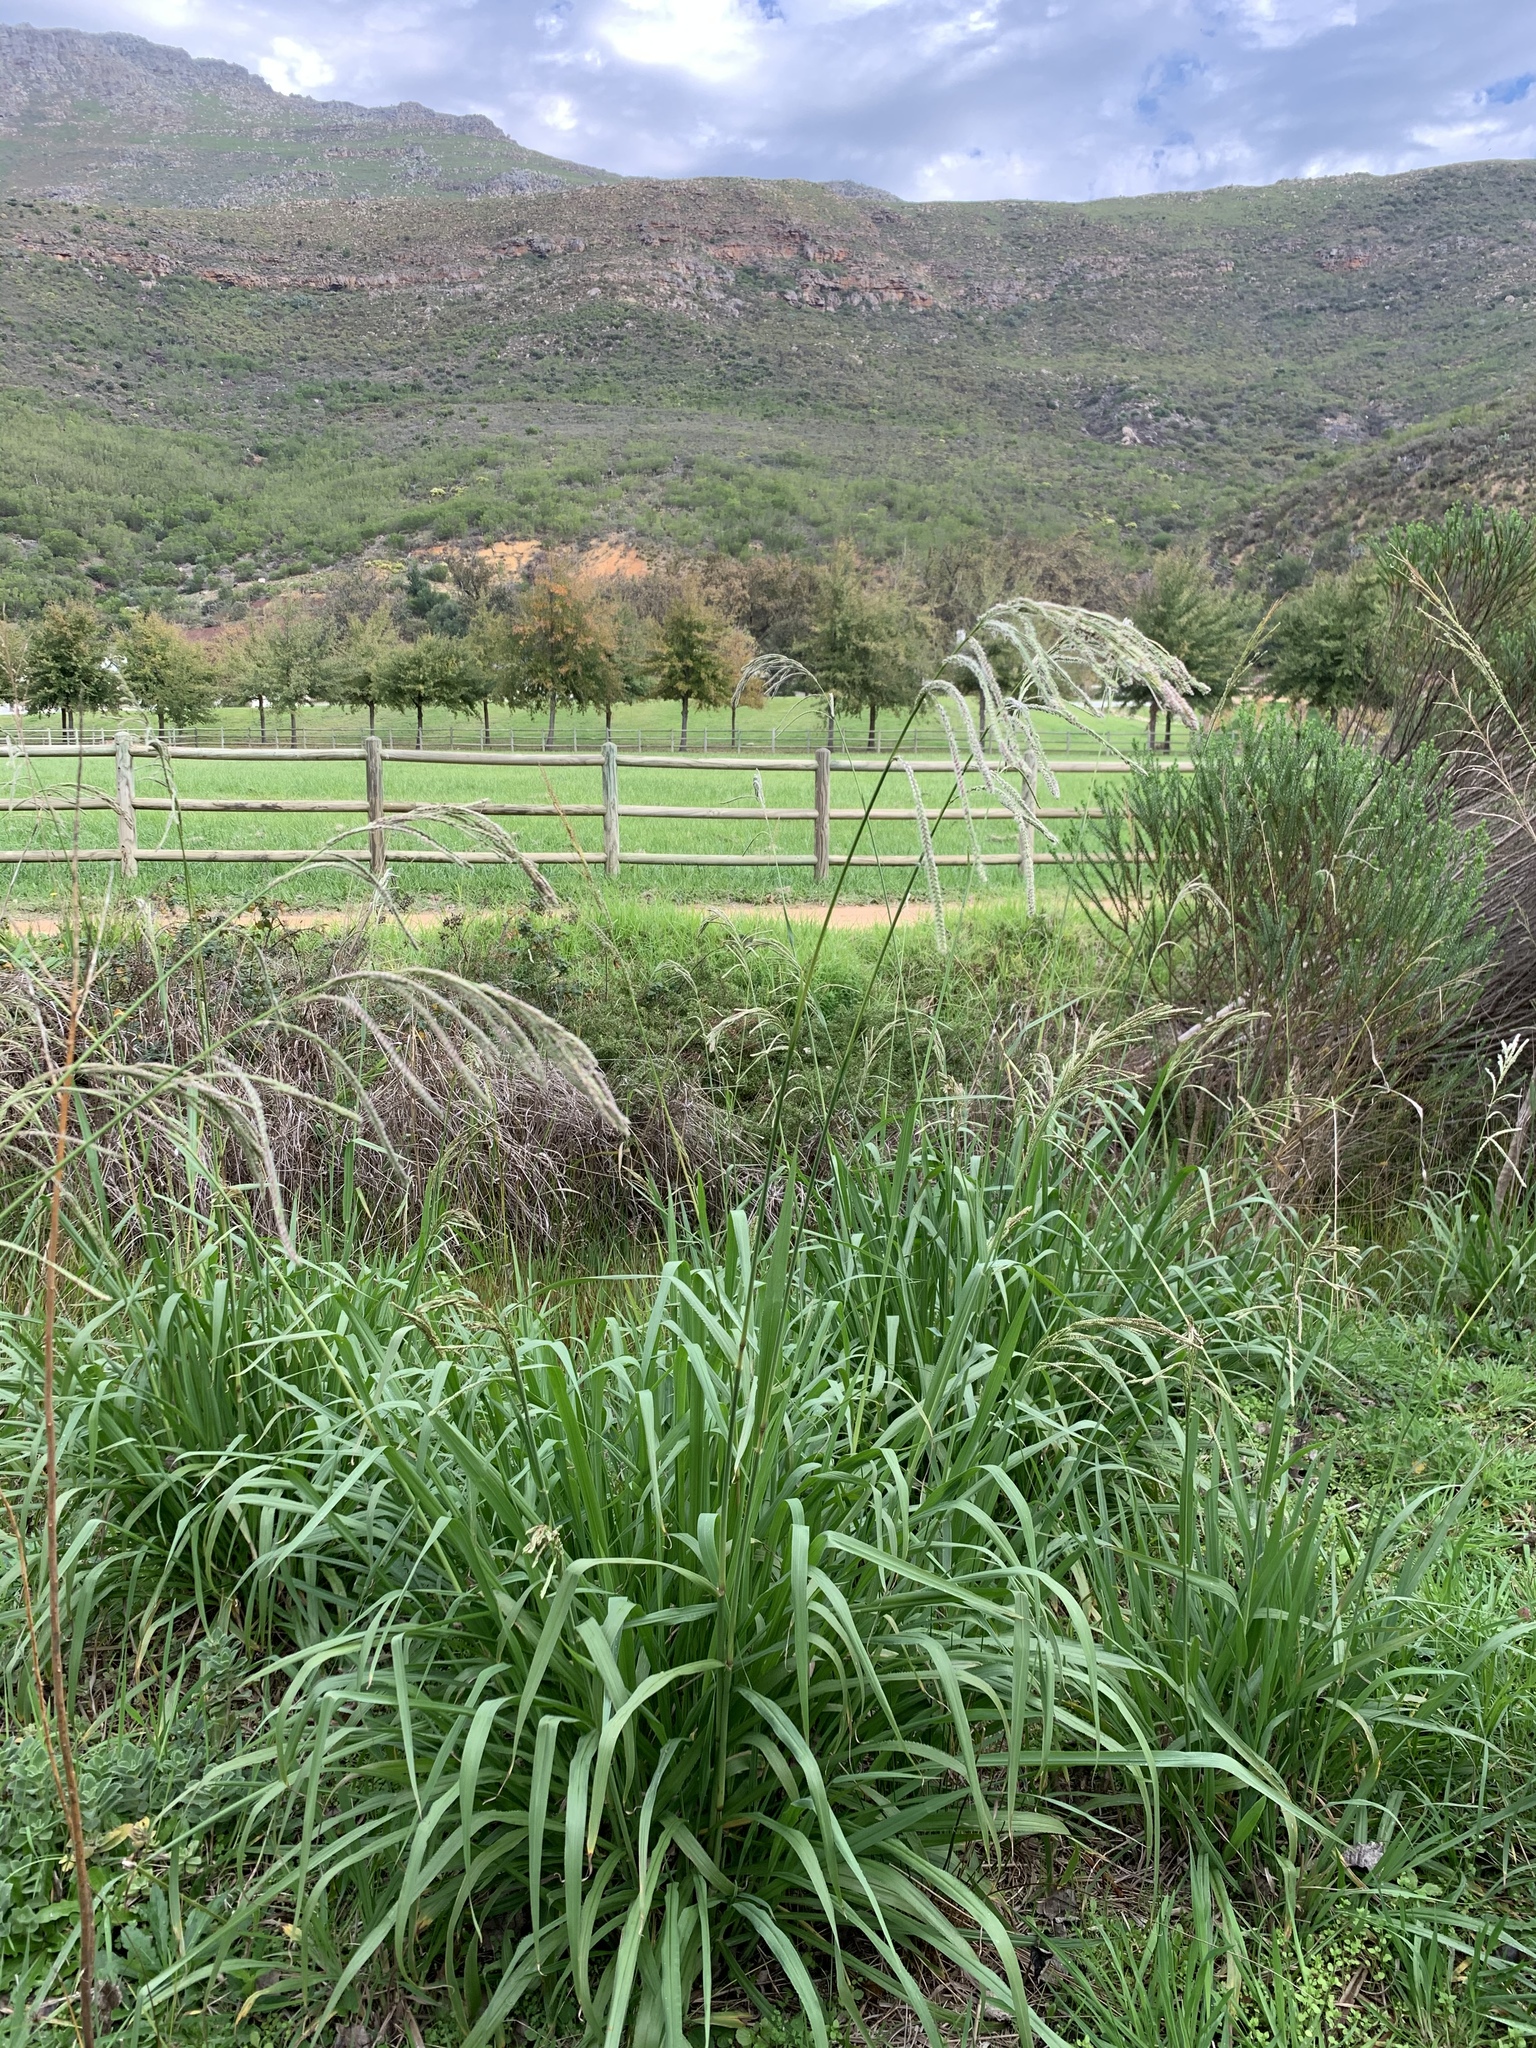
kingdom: Plantae
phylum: Tracheophyta
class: Liliopsida
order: Poales
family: Poaceae
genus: Paspalum
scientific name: Paspalum urvillei
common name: Vasey's grass
